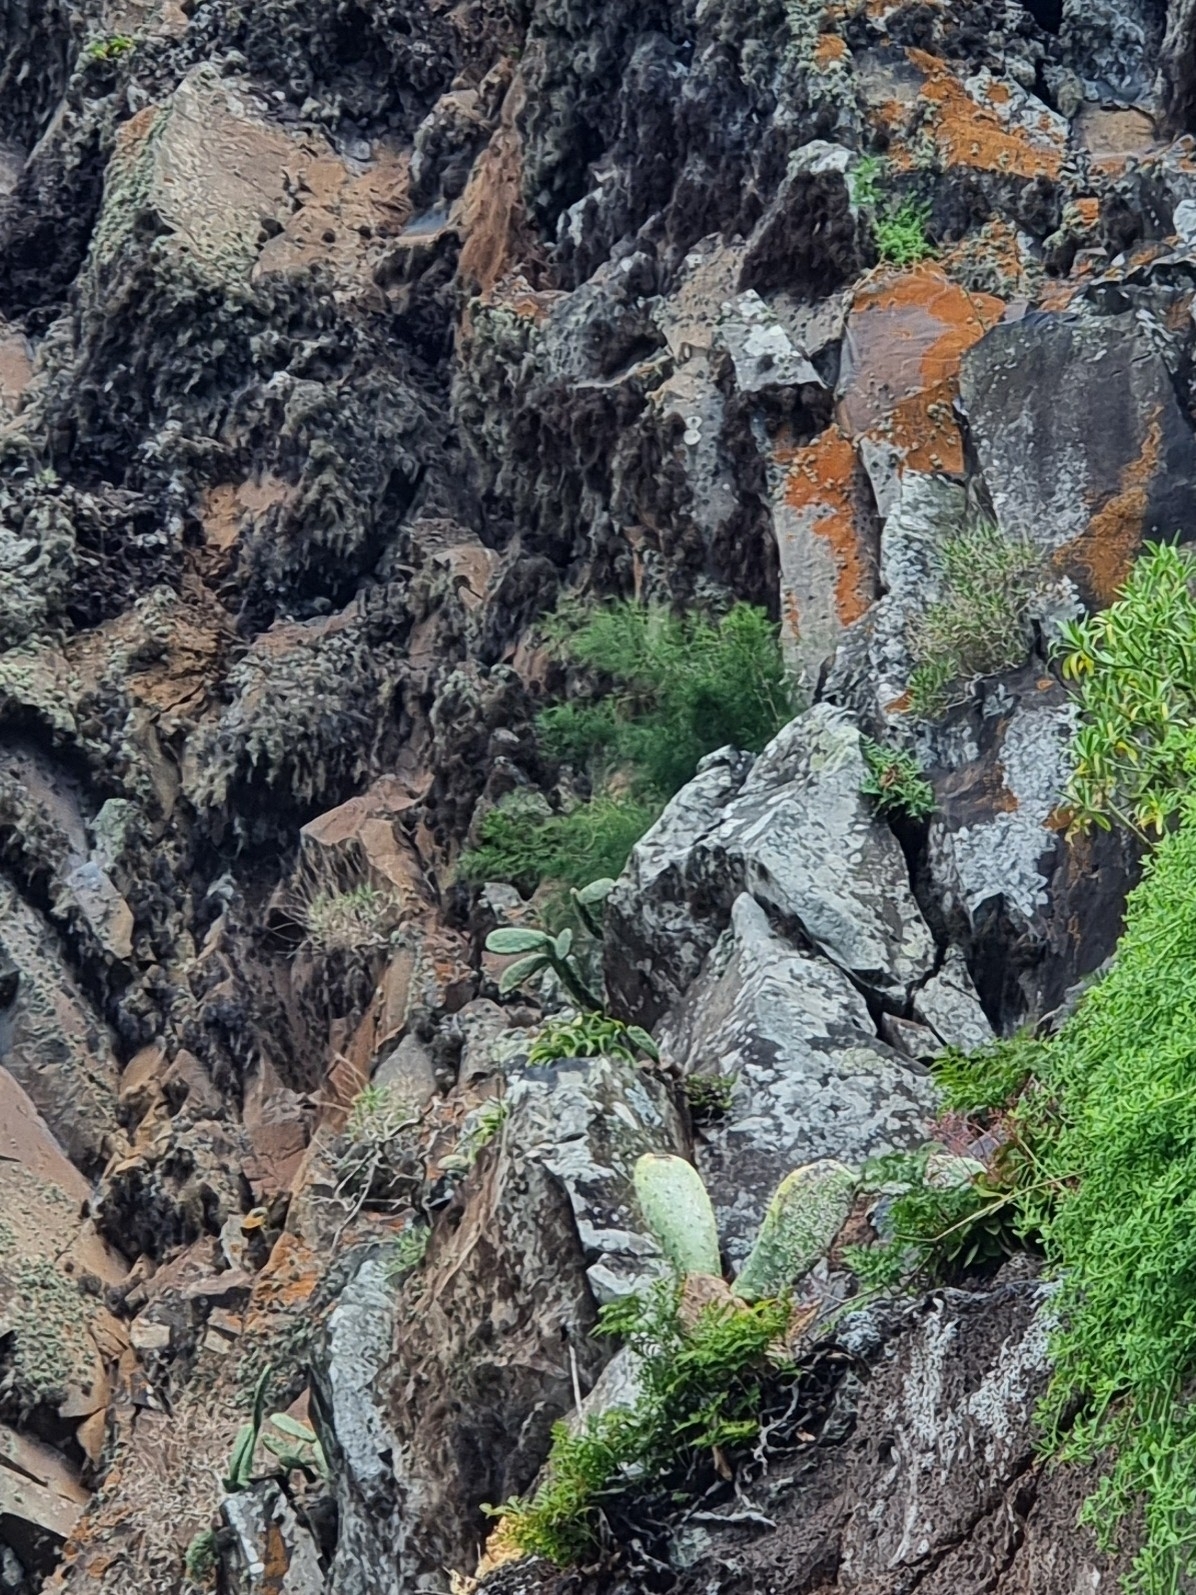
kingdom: Plantae
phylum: Tracheophyta
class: Liliopsida
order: Asparagales
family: Asparagaceae
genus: Scilla
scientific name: Scilla madeirensis
